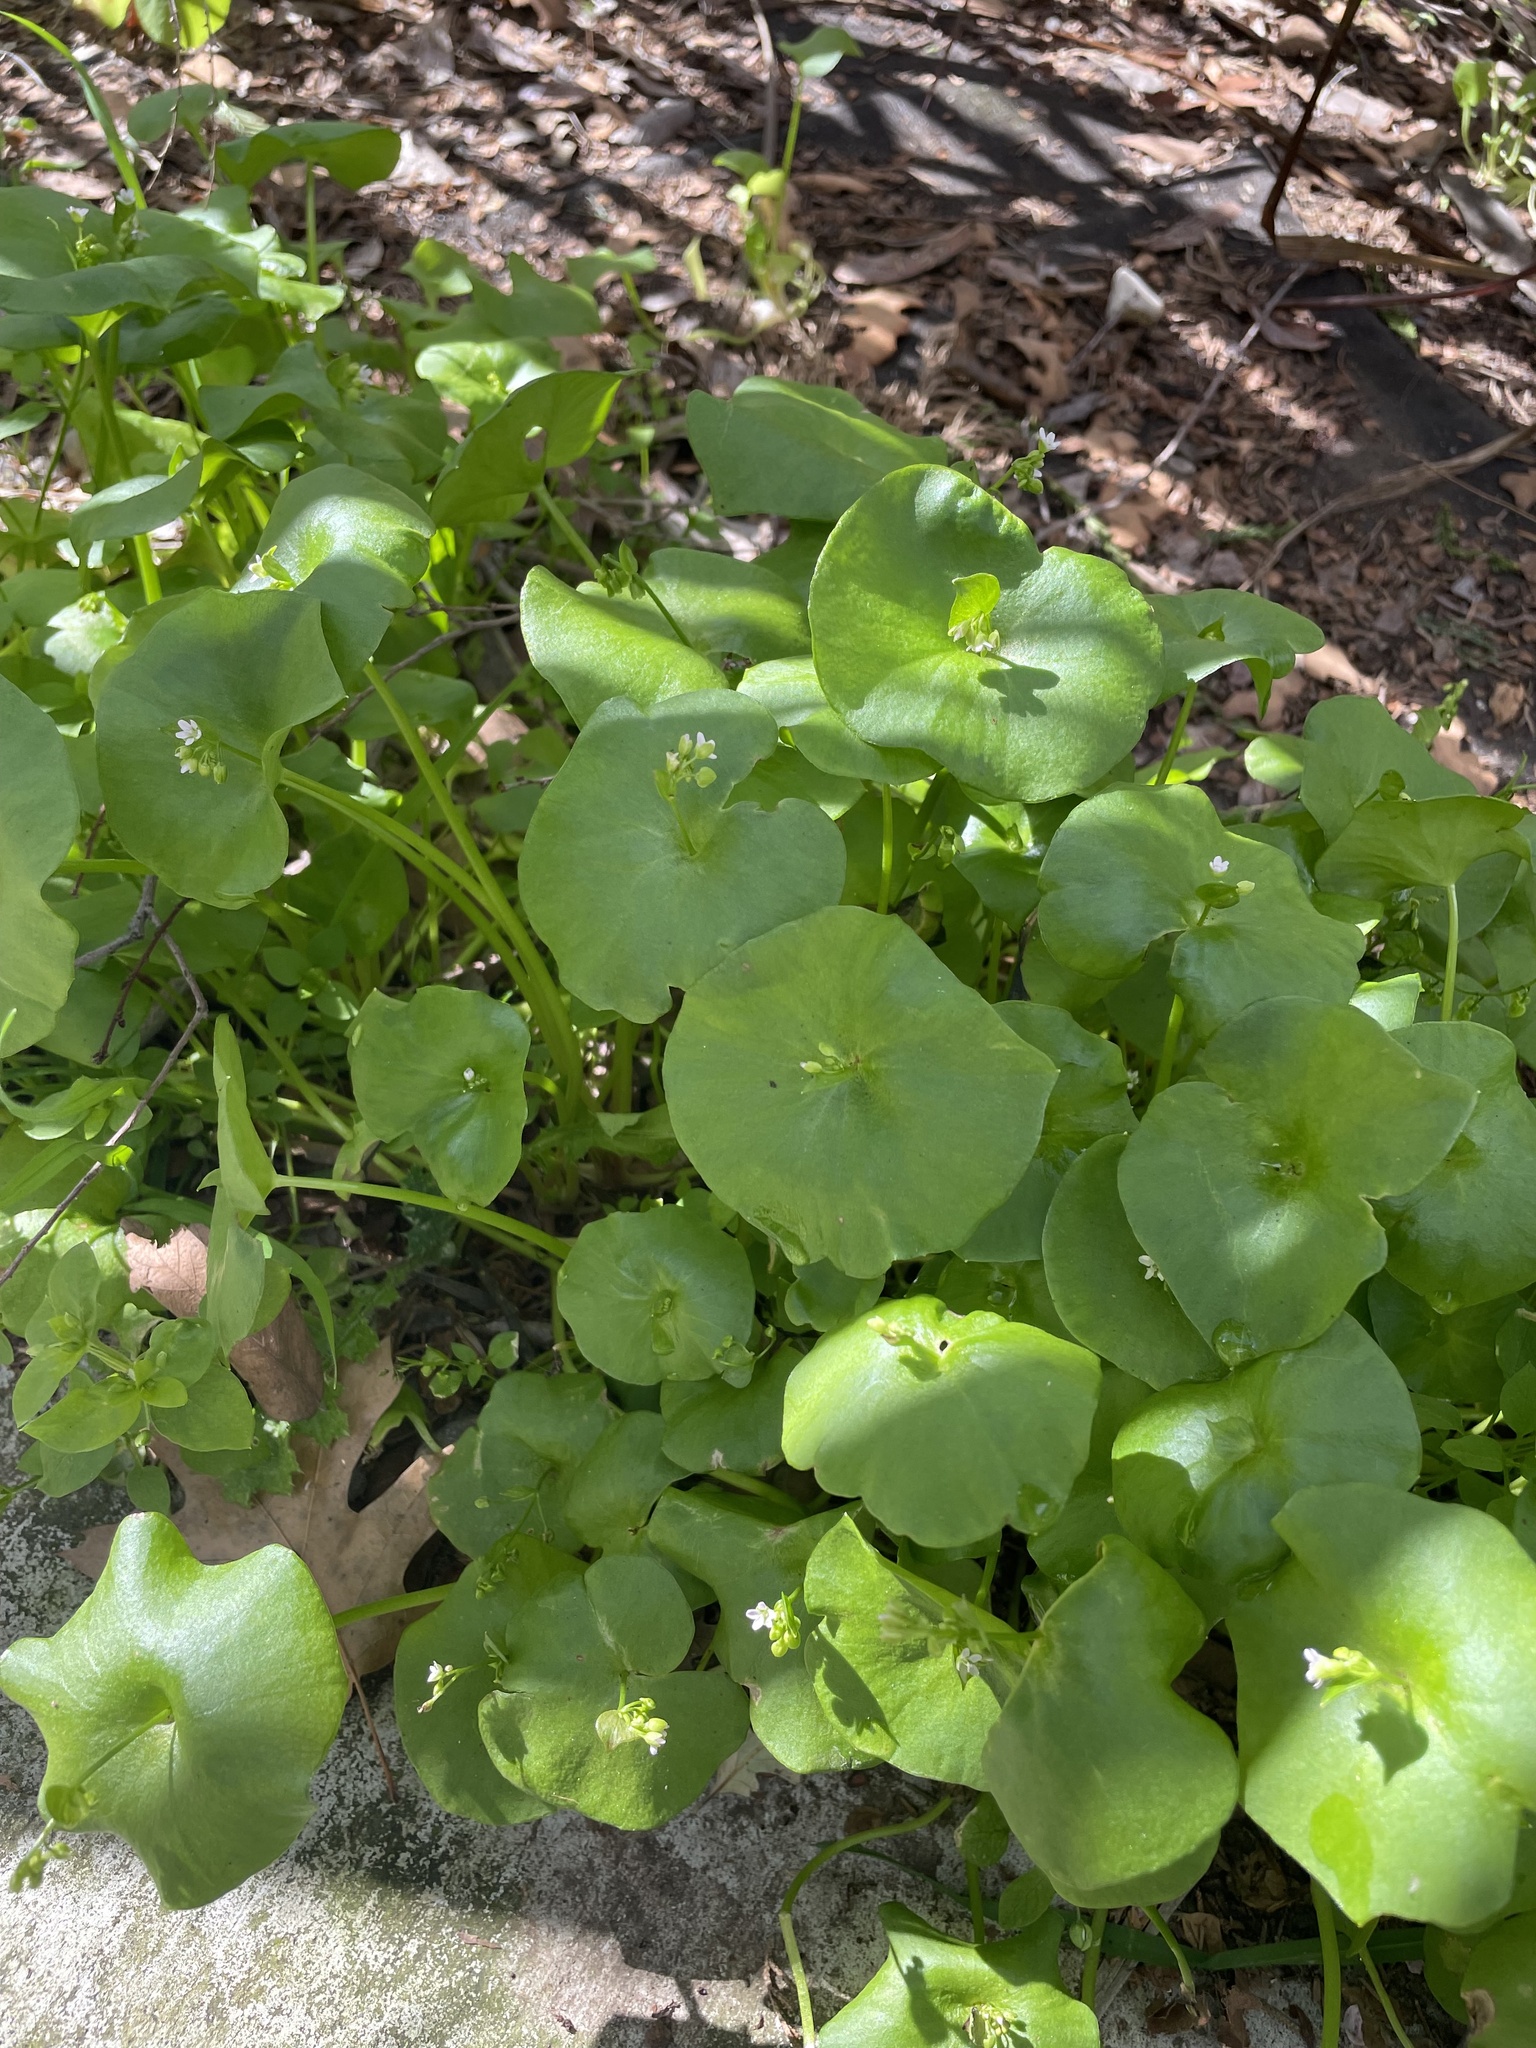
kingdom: Plantae
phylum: Tracheophyta
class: Magnoliopsida
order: Caryophyllales
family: Montiaceae
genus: Claytonia
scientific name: Claytonia perfoliata
